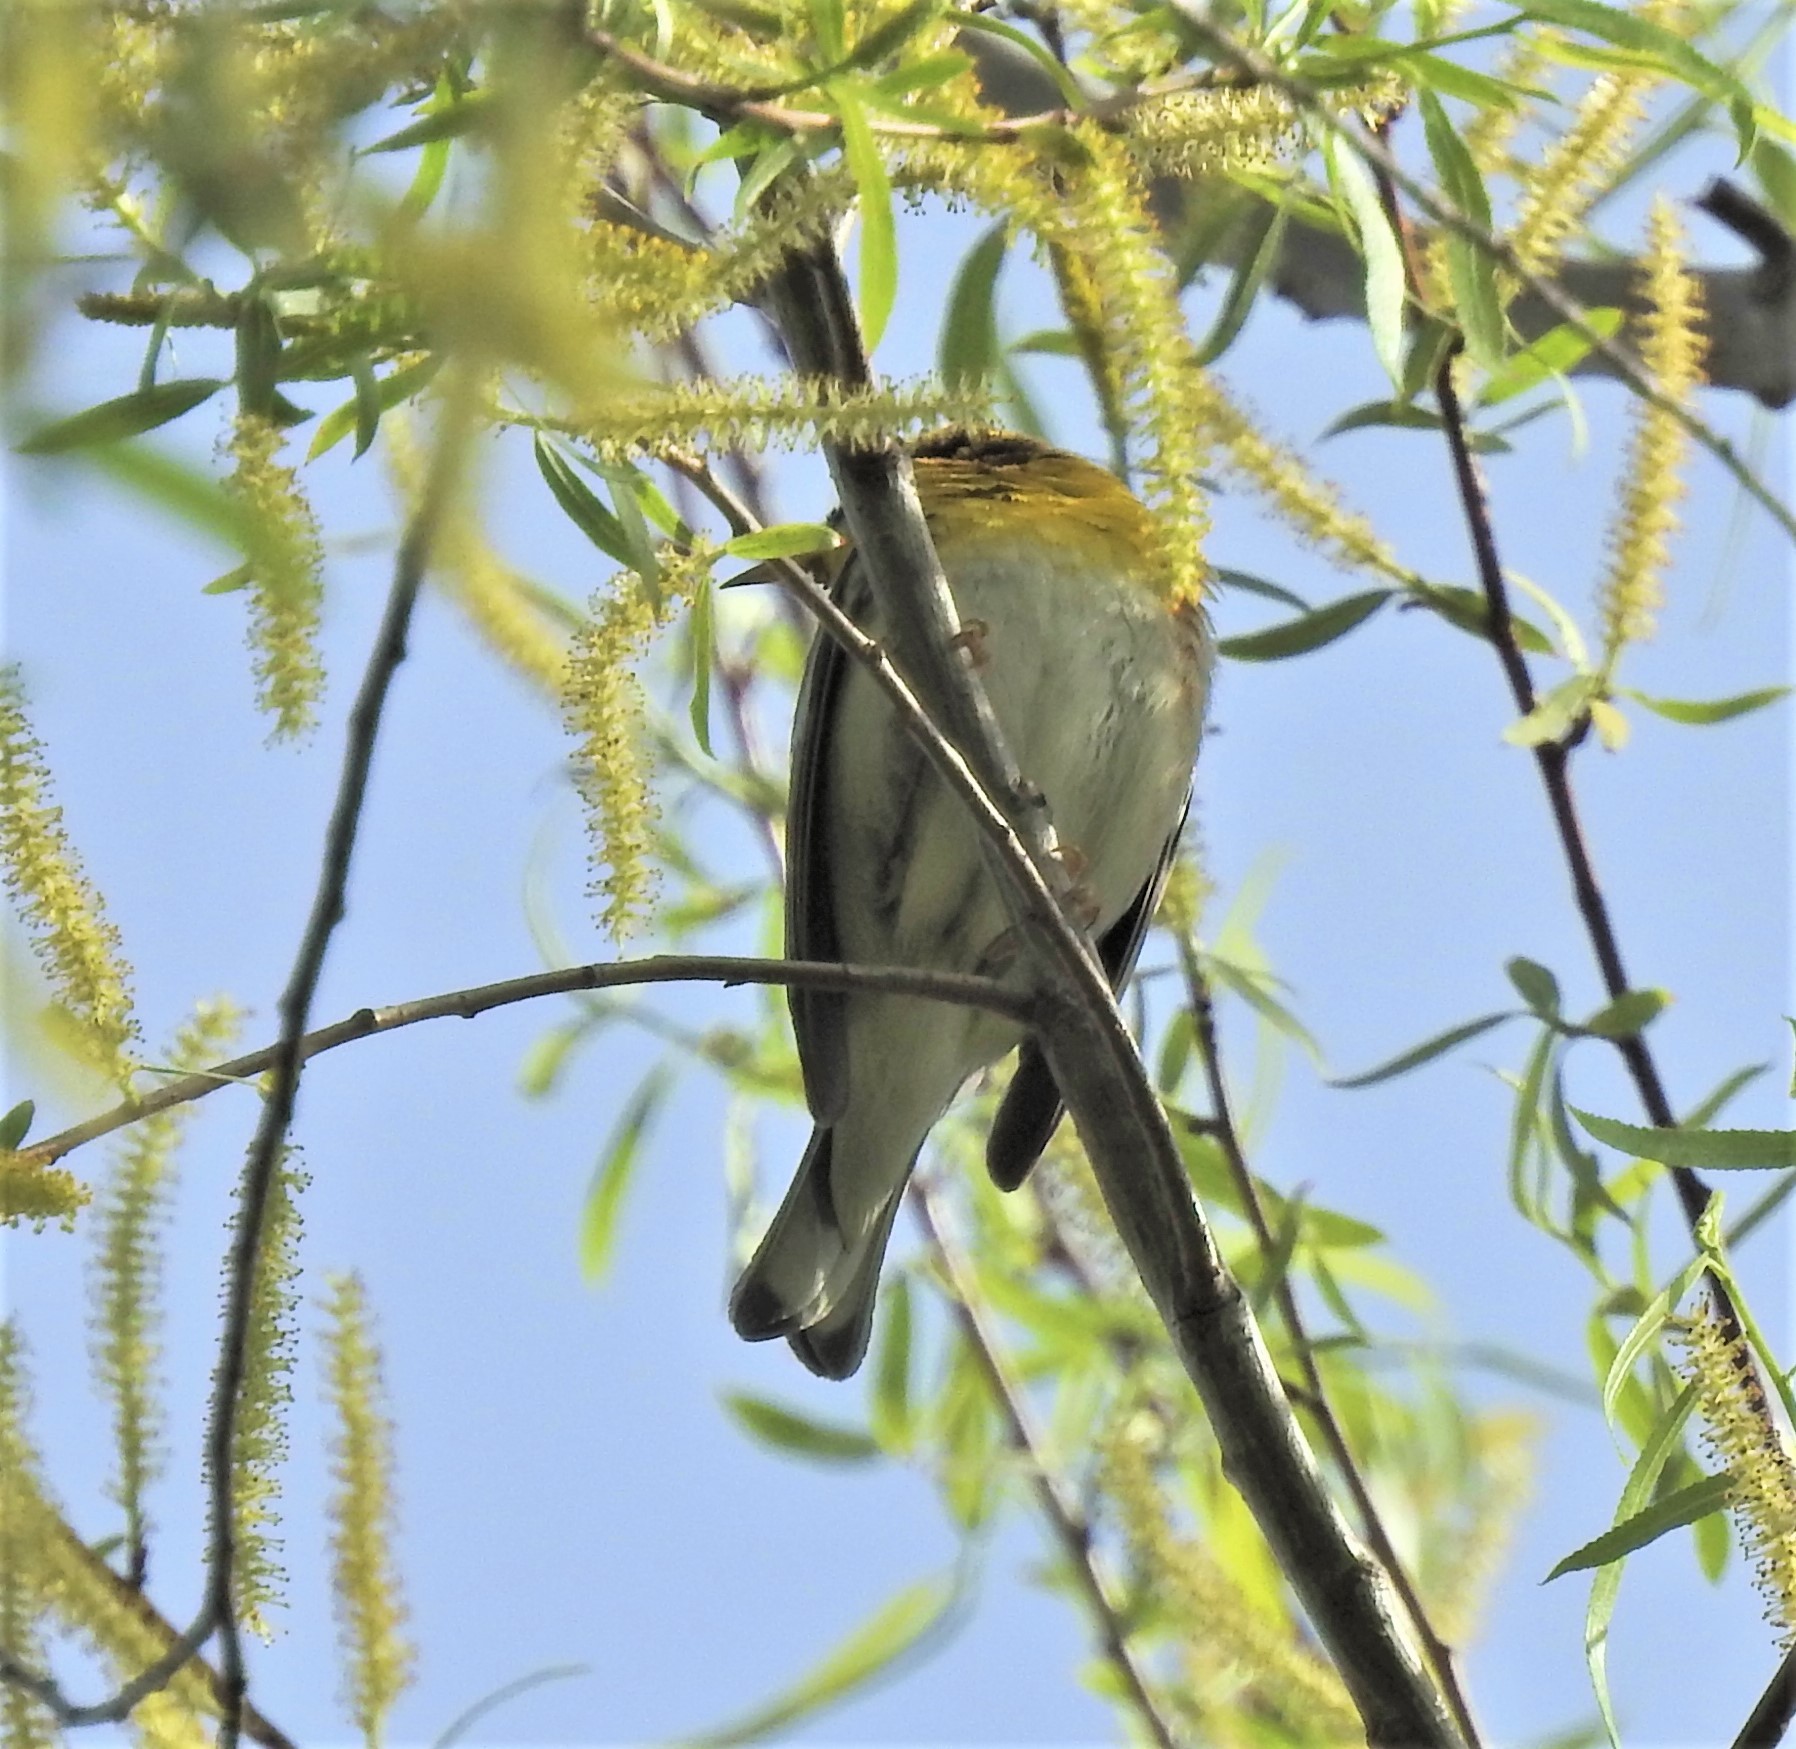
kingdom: Animalia
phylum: Chordata
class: Aves
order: Passeriformes
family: Parulidae
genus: Setophaga
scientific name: Setophaga americana
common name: Northern parula
